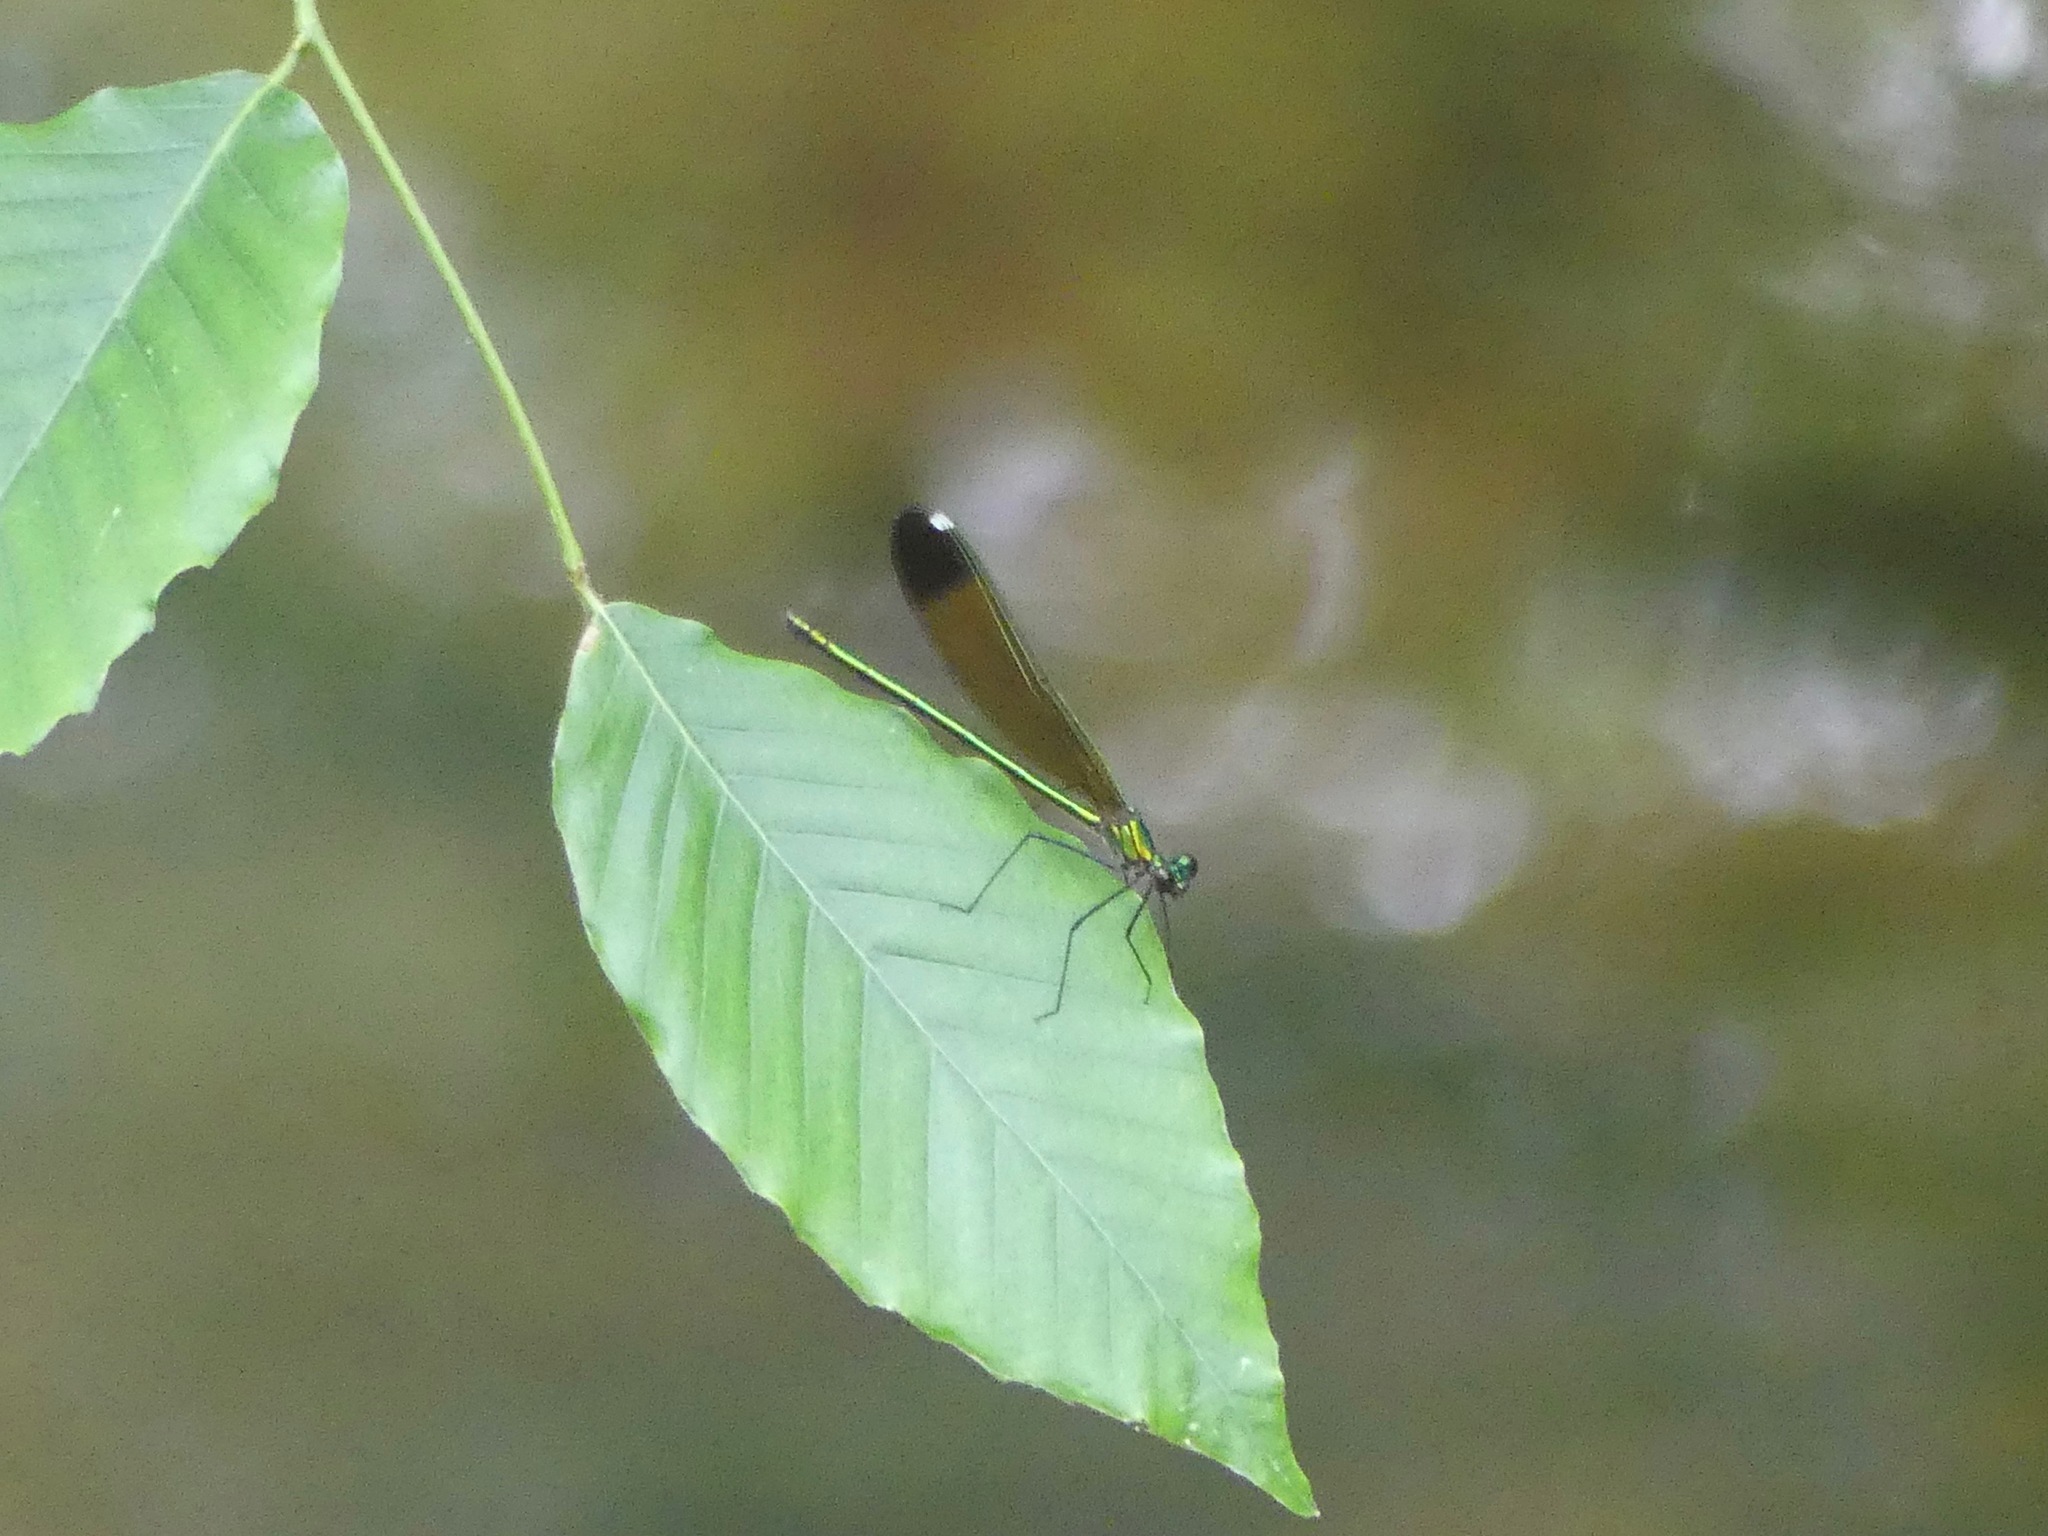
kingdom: Animalia
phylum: Arthropoda
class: Insecta
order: Odonata
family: Calopterygidae
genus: Calopteryx
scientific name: Calopteryx dimidiata
